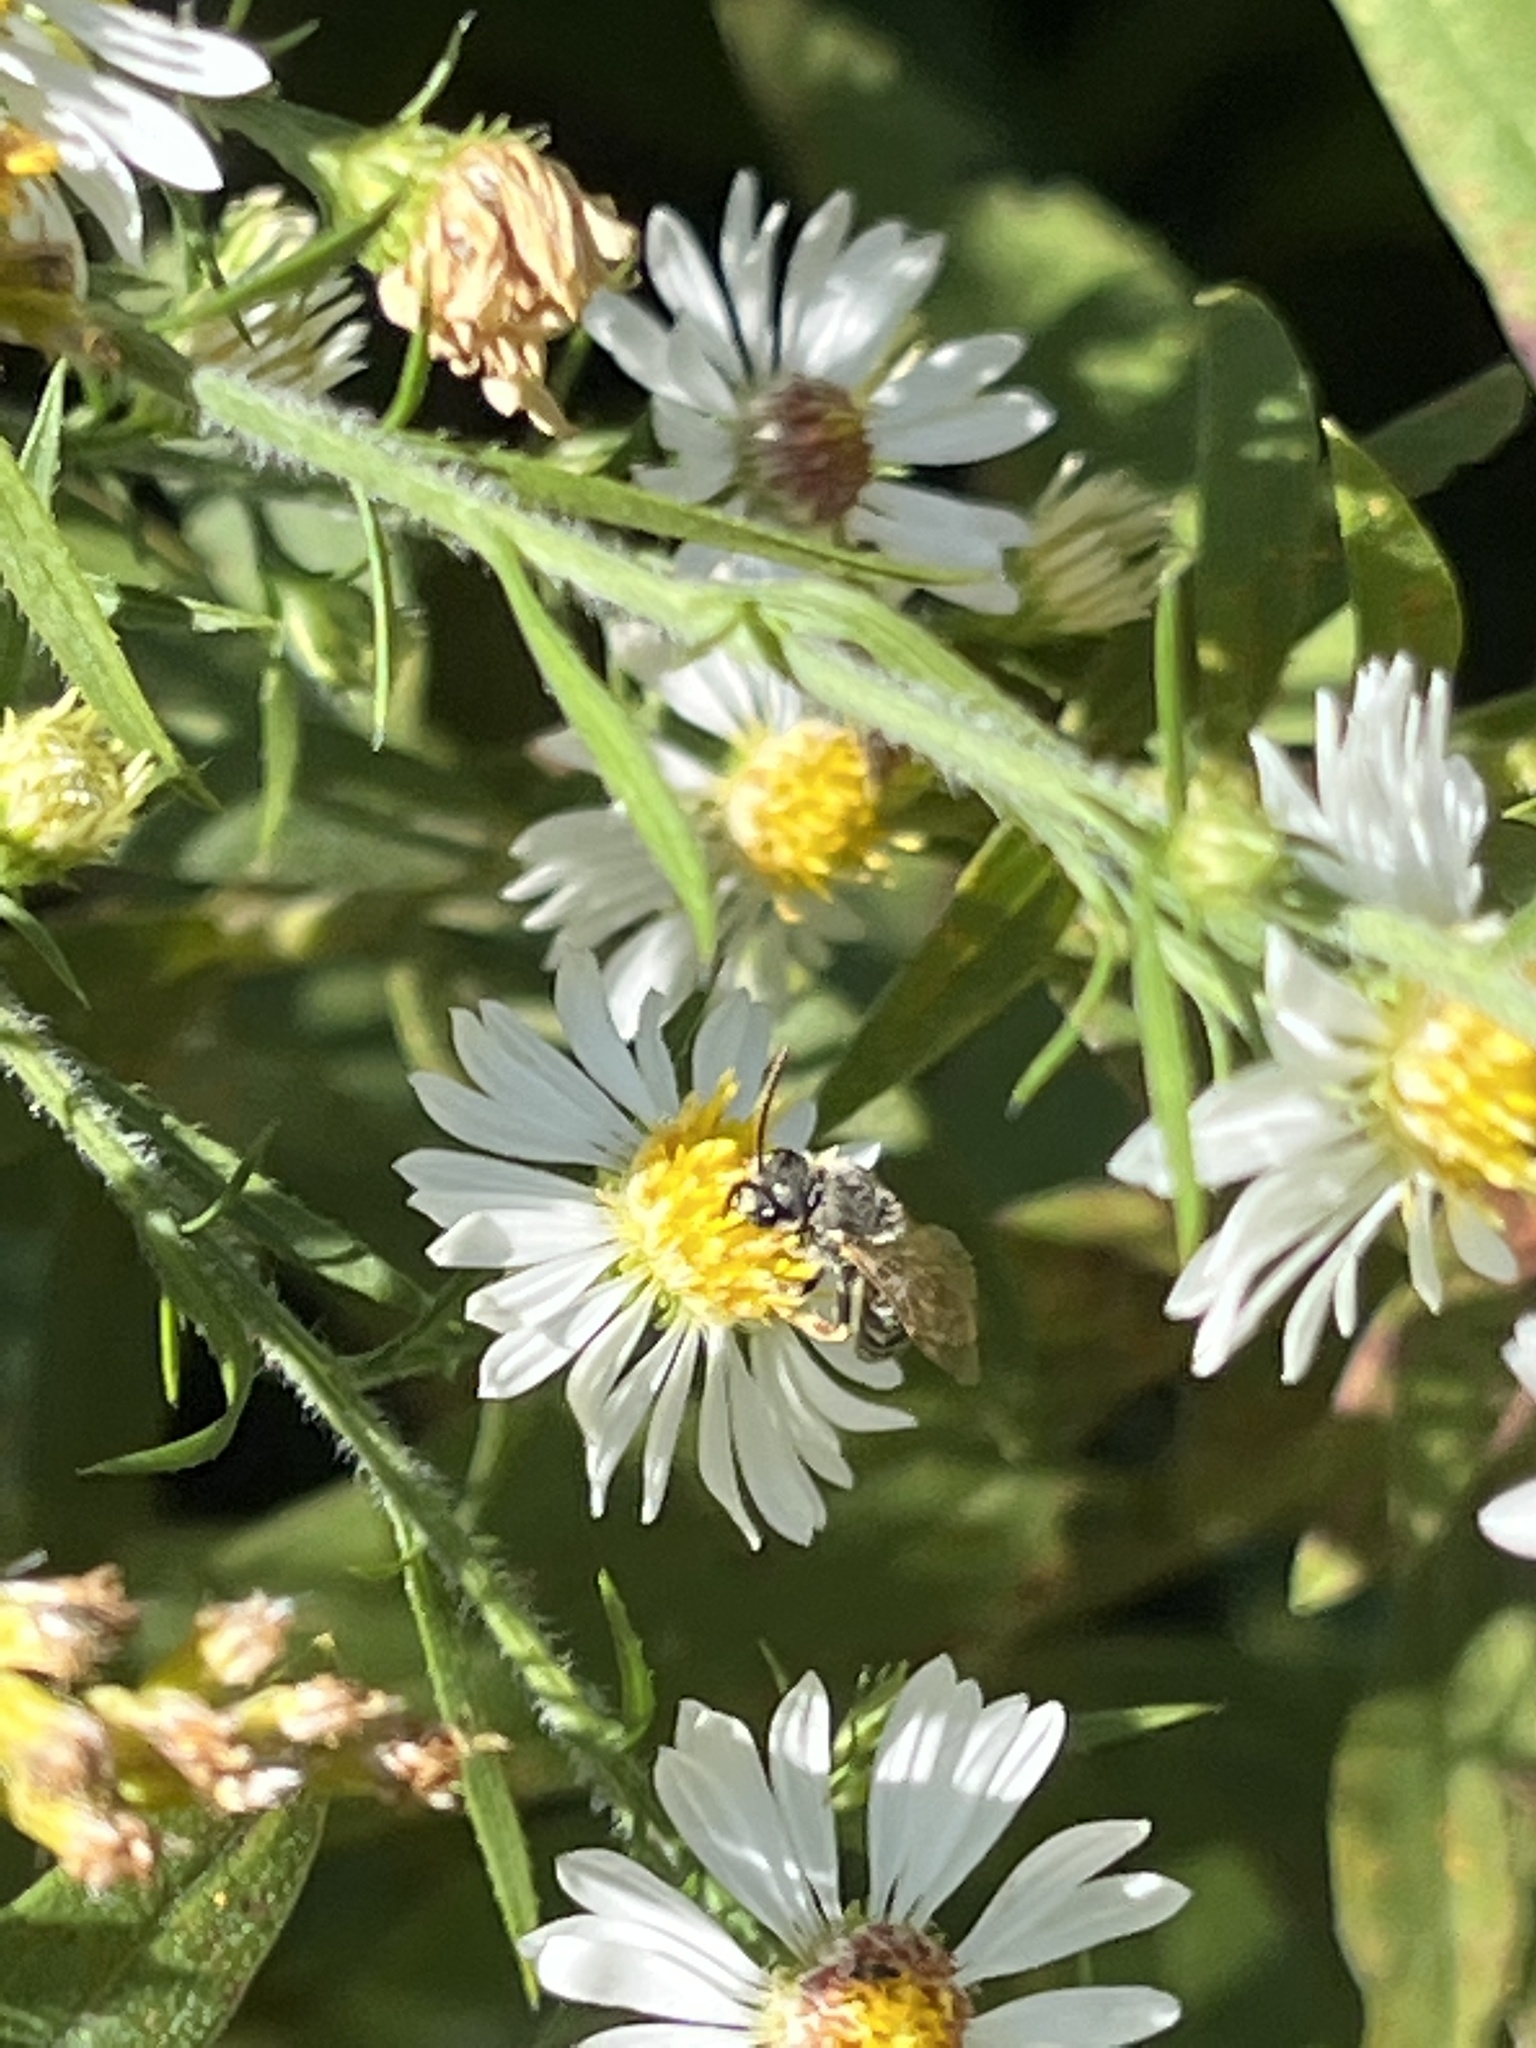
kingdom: Animalia
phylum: Arthropoda
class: Insecta
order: Hymenoptera
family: Halictidae
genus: Halictus
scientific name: Halictus ligatus
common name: Ligated furrow bee
